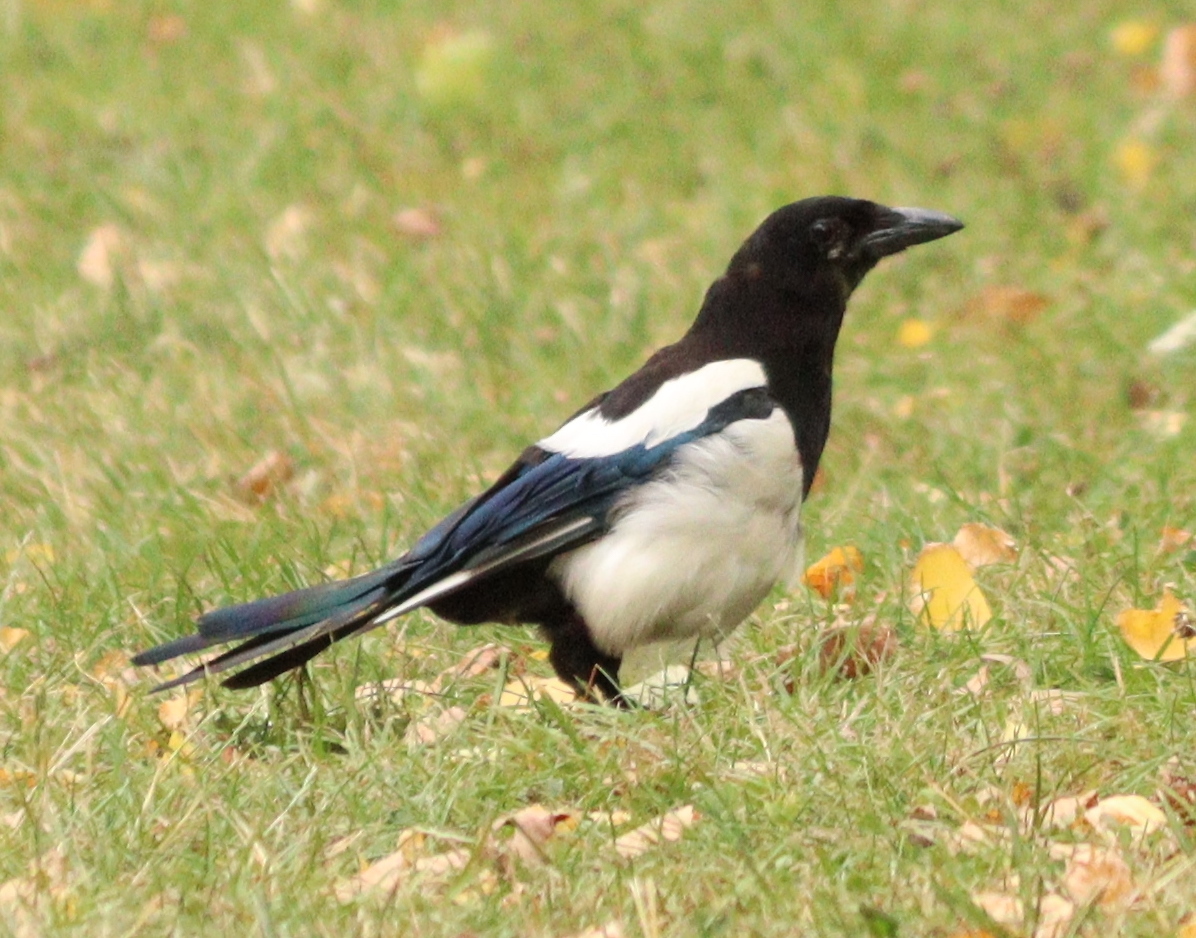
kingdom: Animalia
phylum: Chordata
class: Aves
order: Passeriformes
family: Corvidae
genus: Pica
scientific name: Pica pica
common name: Eurasian magpie
